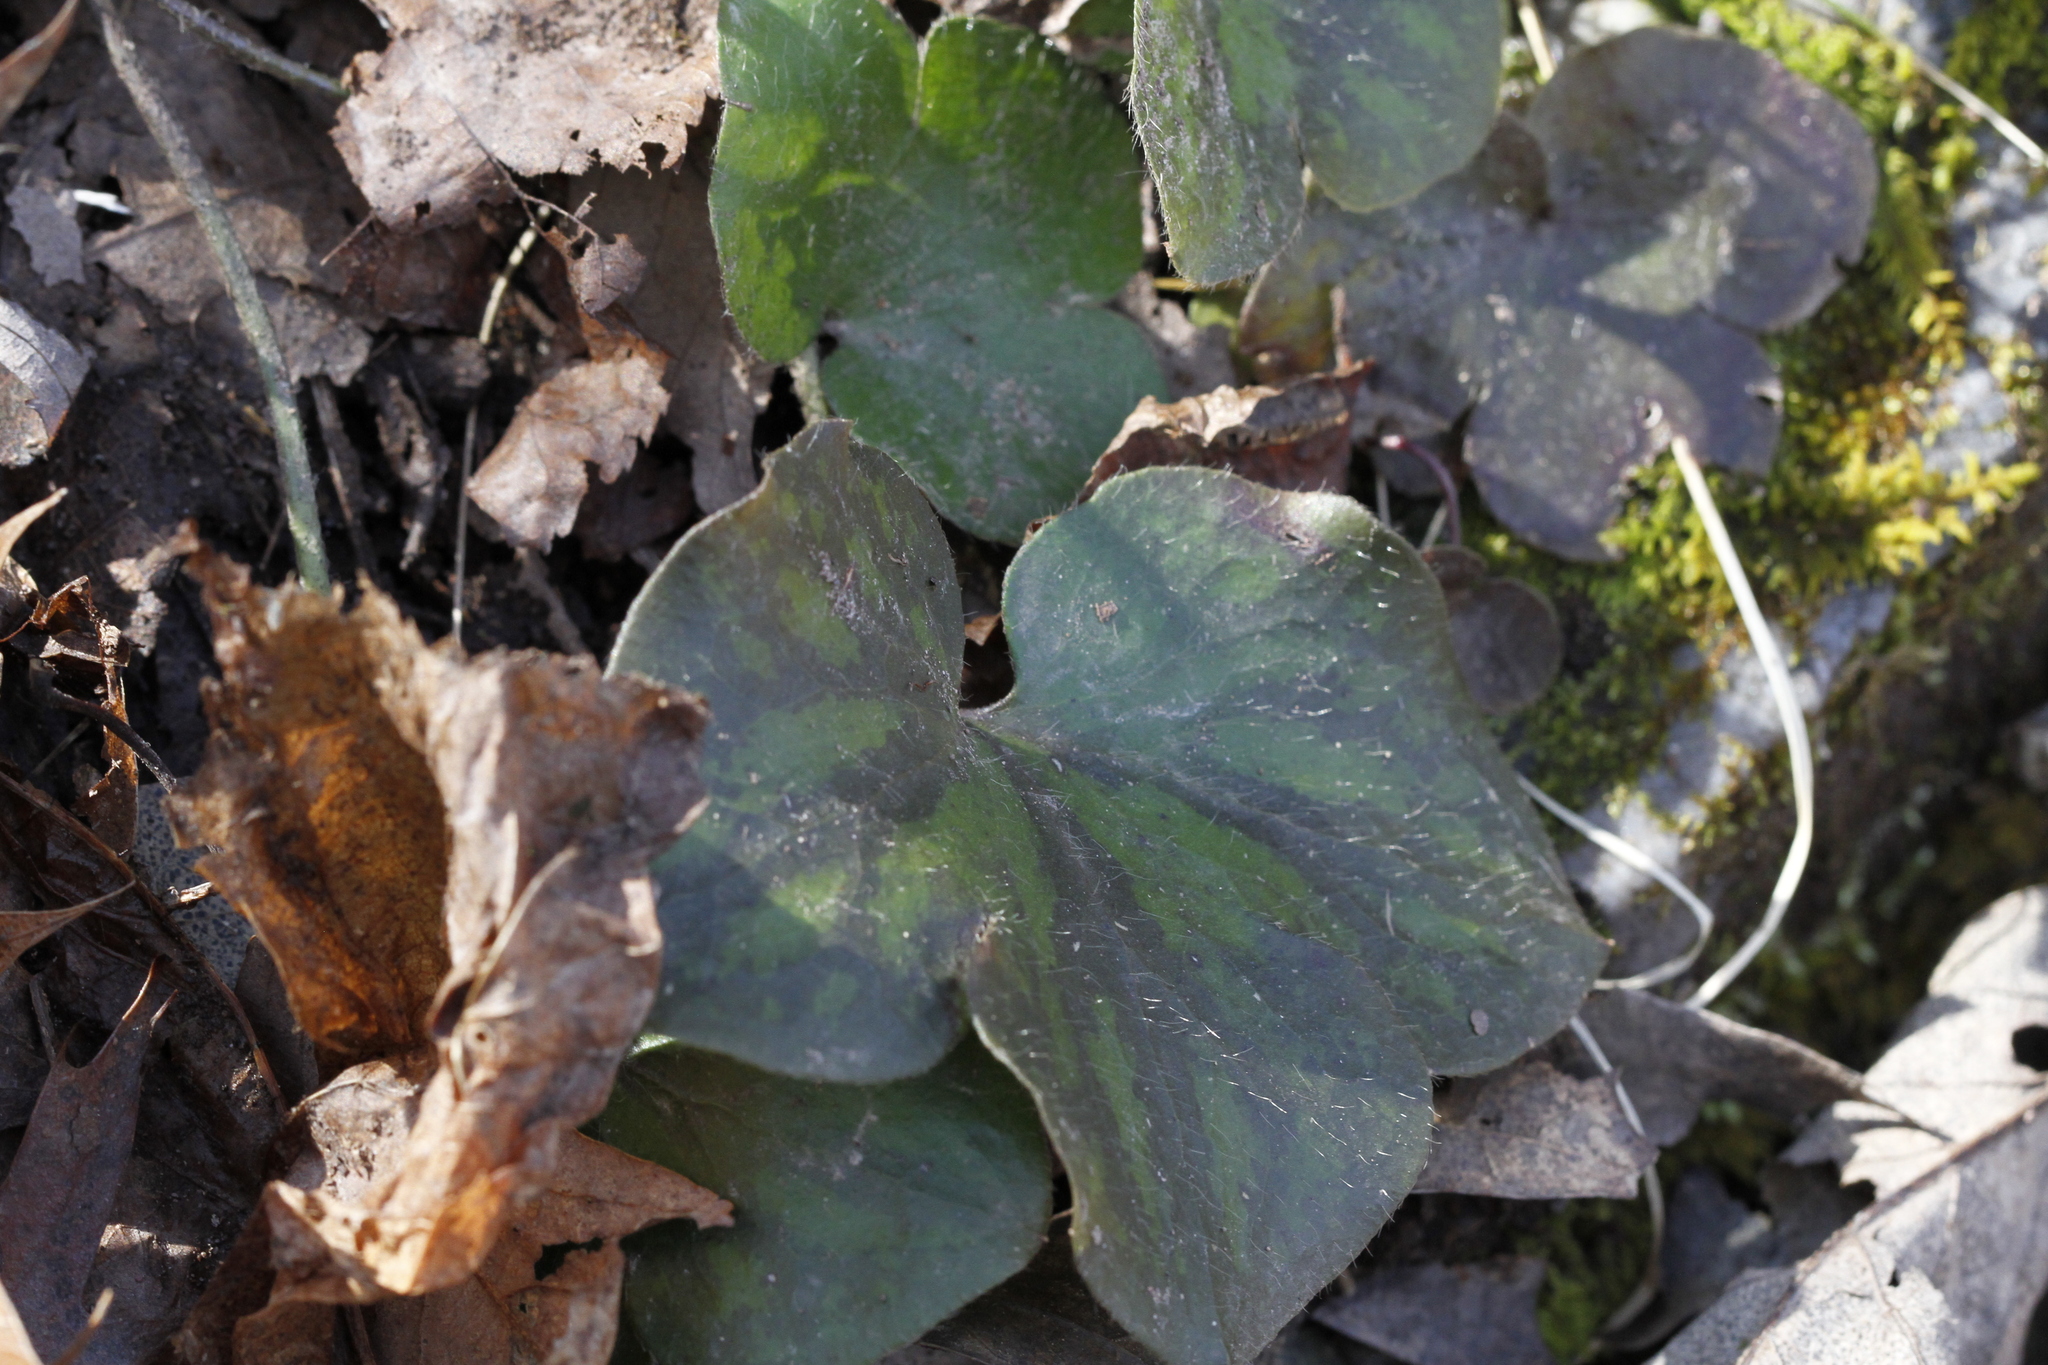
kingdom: Plantae
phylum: Tracheophyta
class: Magnoliopsida
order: Ranunculales
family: Ranunculaceae
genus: Hepatica
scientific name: Hepatica americana
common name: American hepatica
